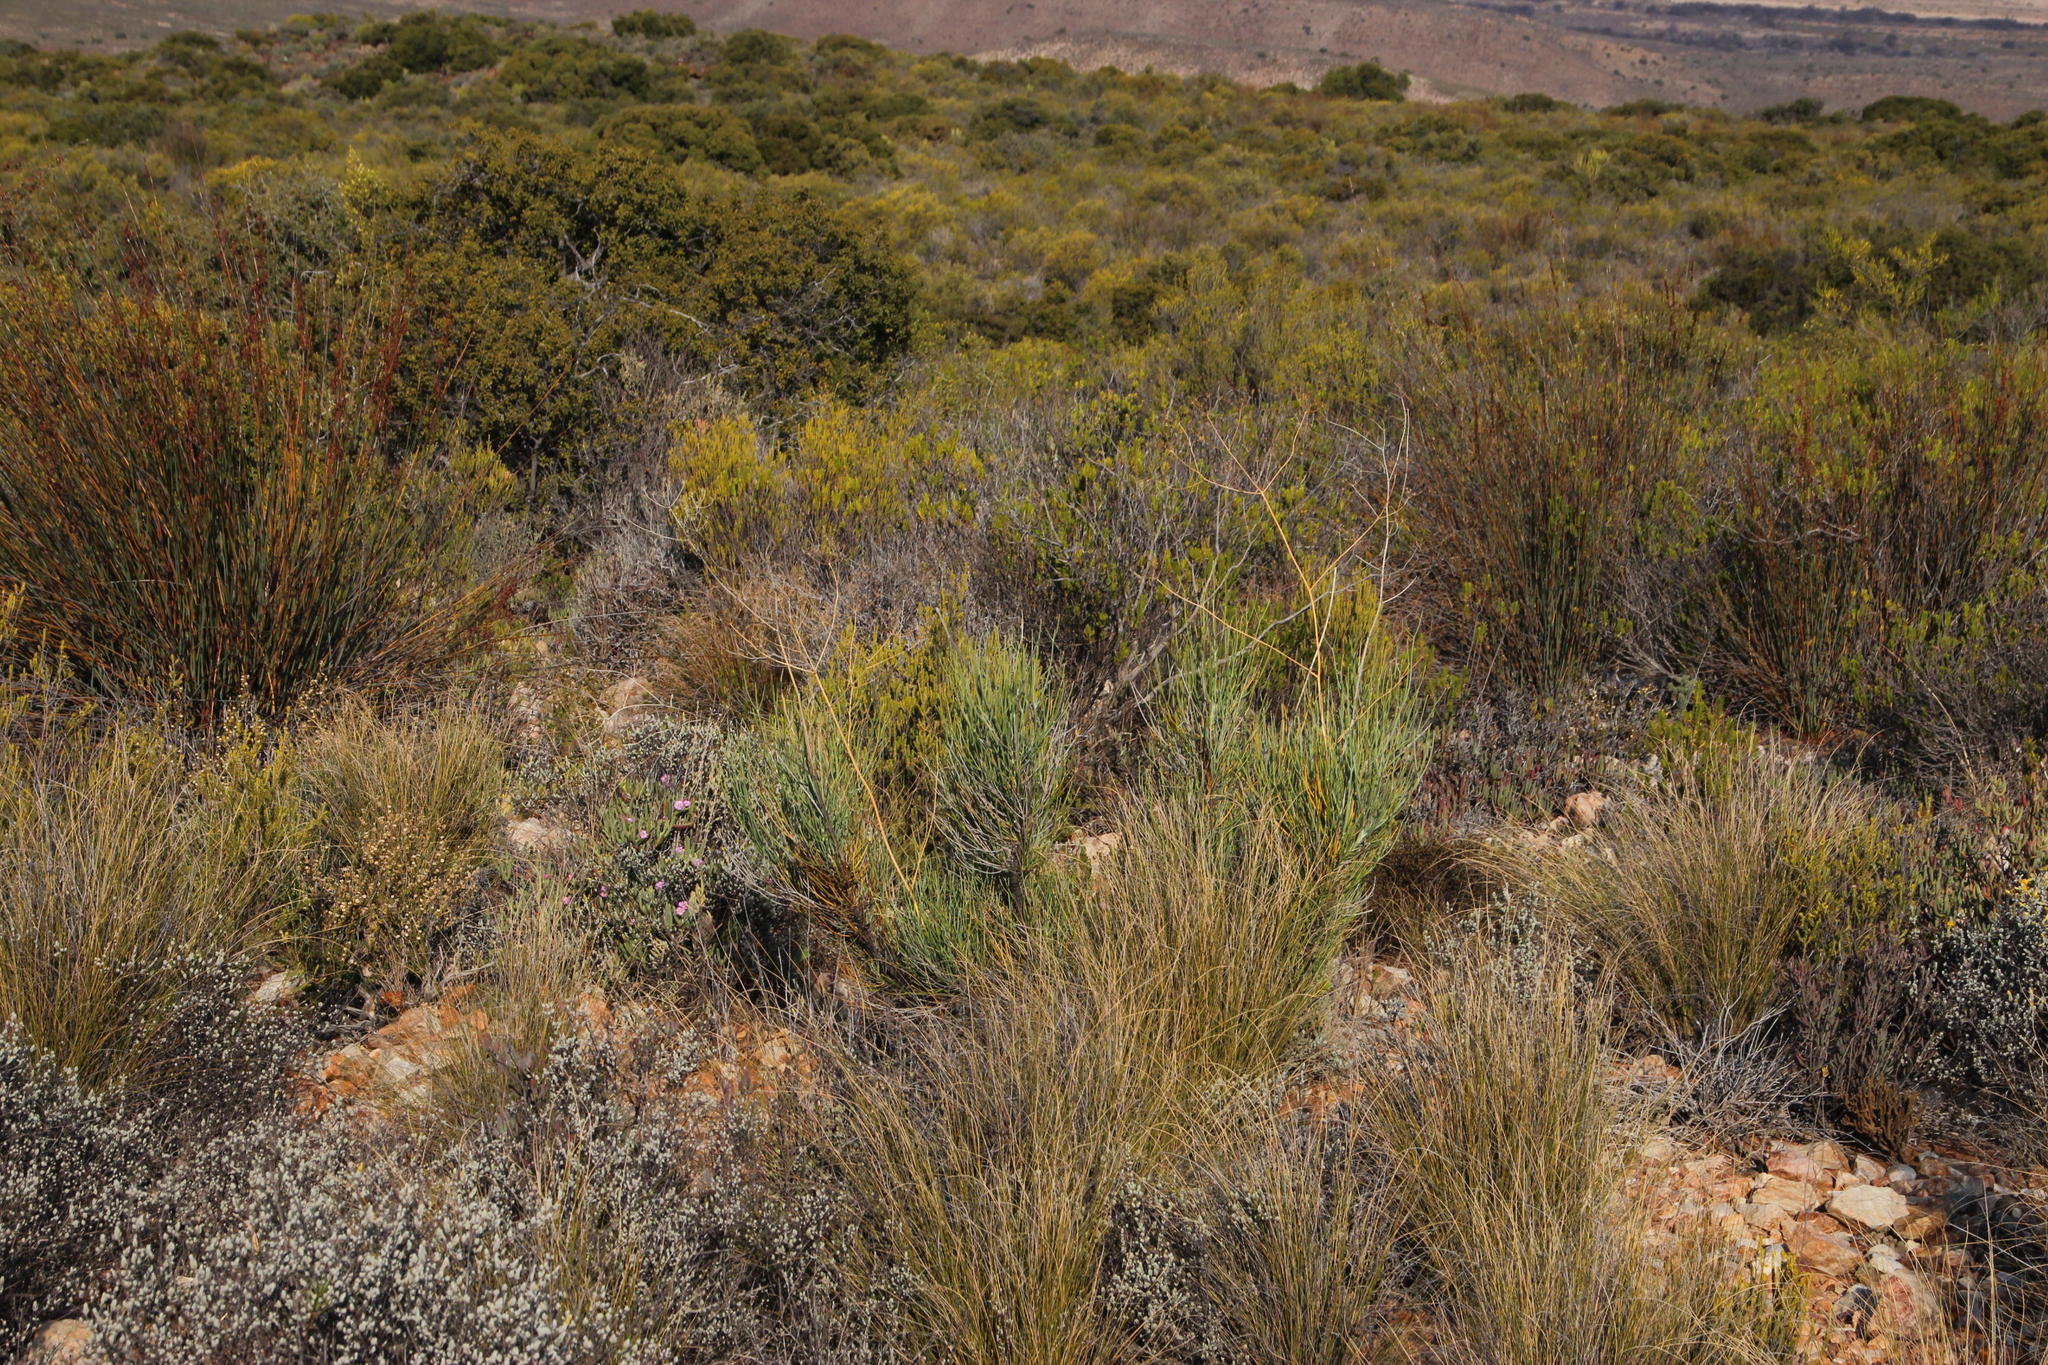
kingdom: Plantae
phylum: Tracheophyta
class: Magnoliopsida
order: Apiales
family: Apiaceae
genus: Anginon
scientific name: Anginon swellendamense
